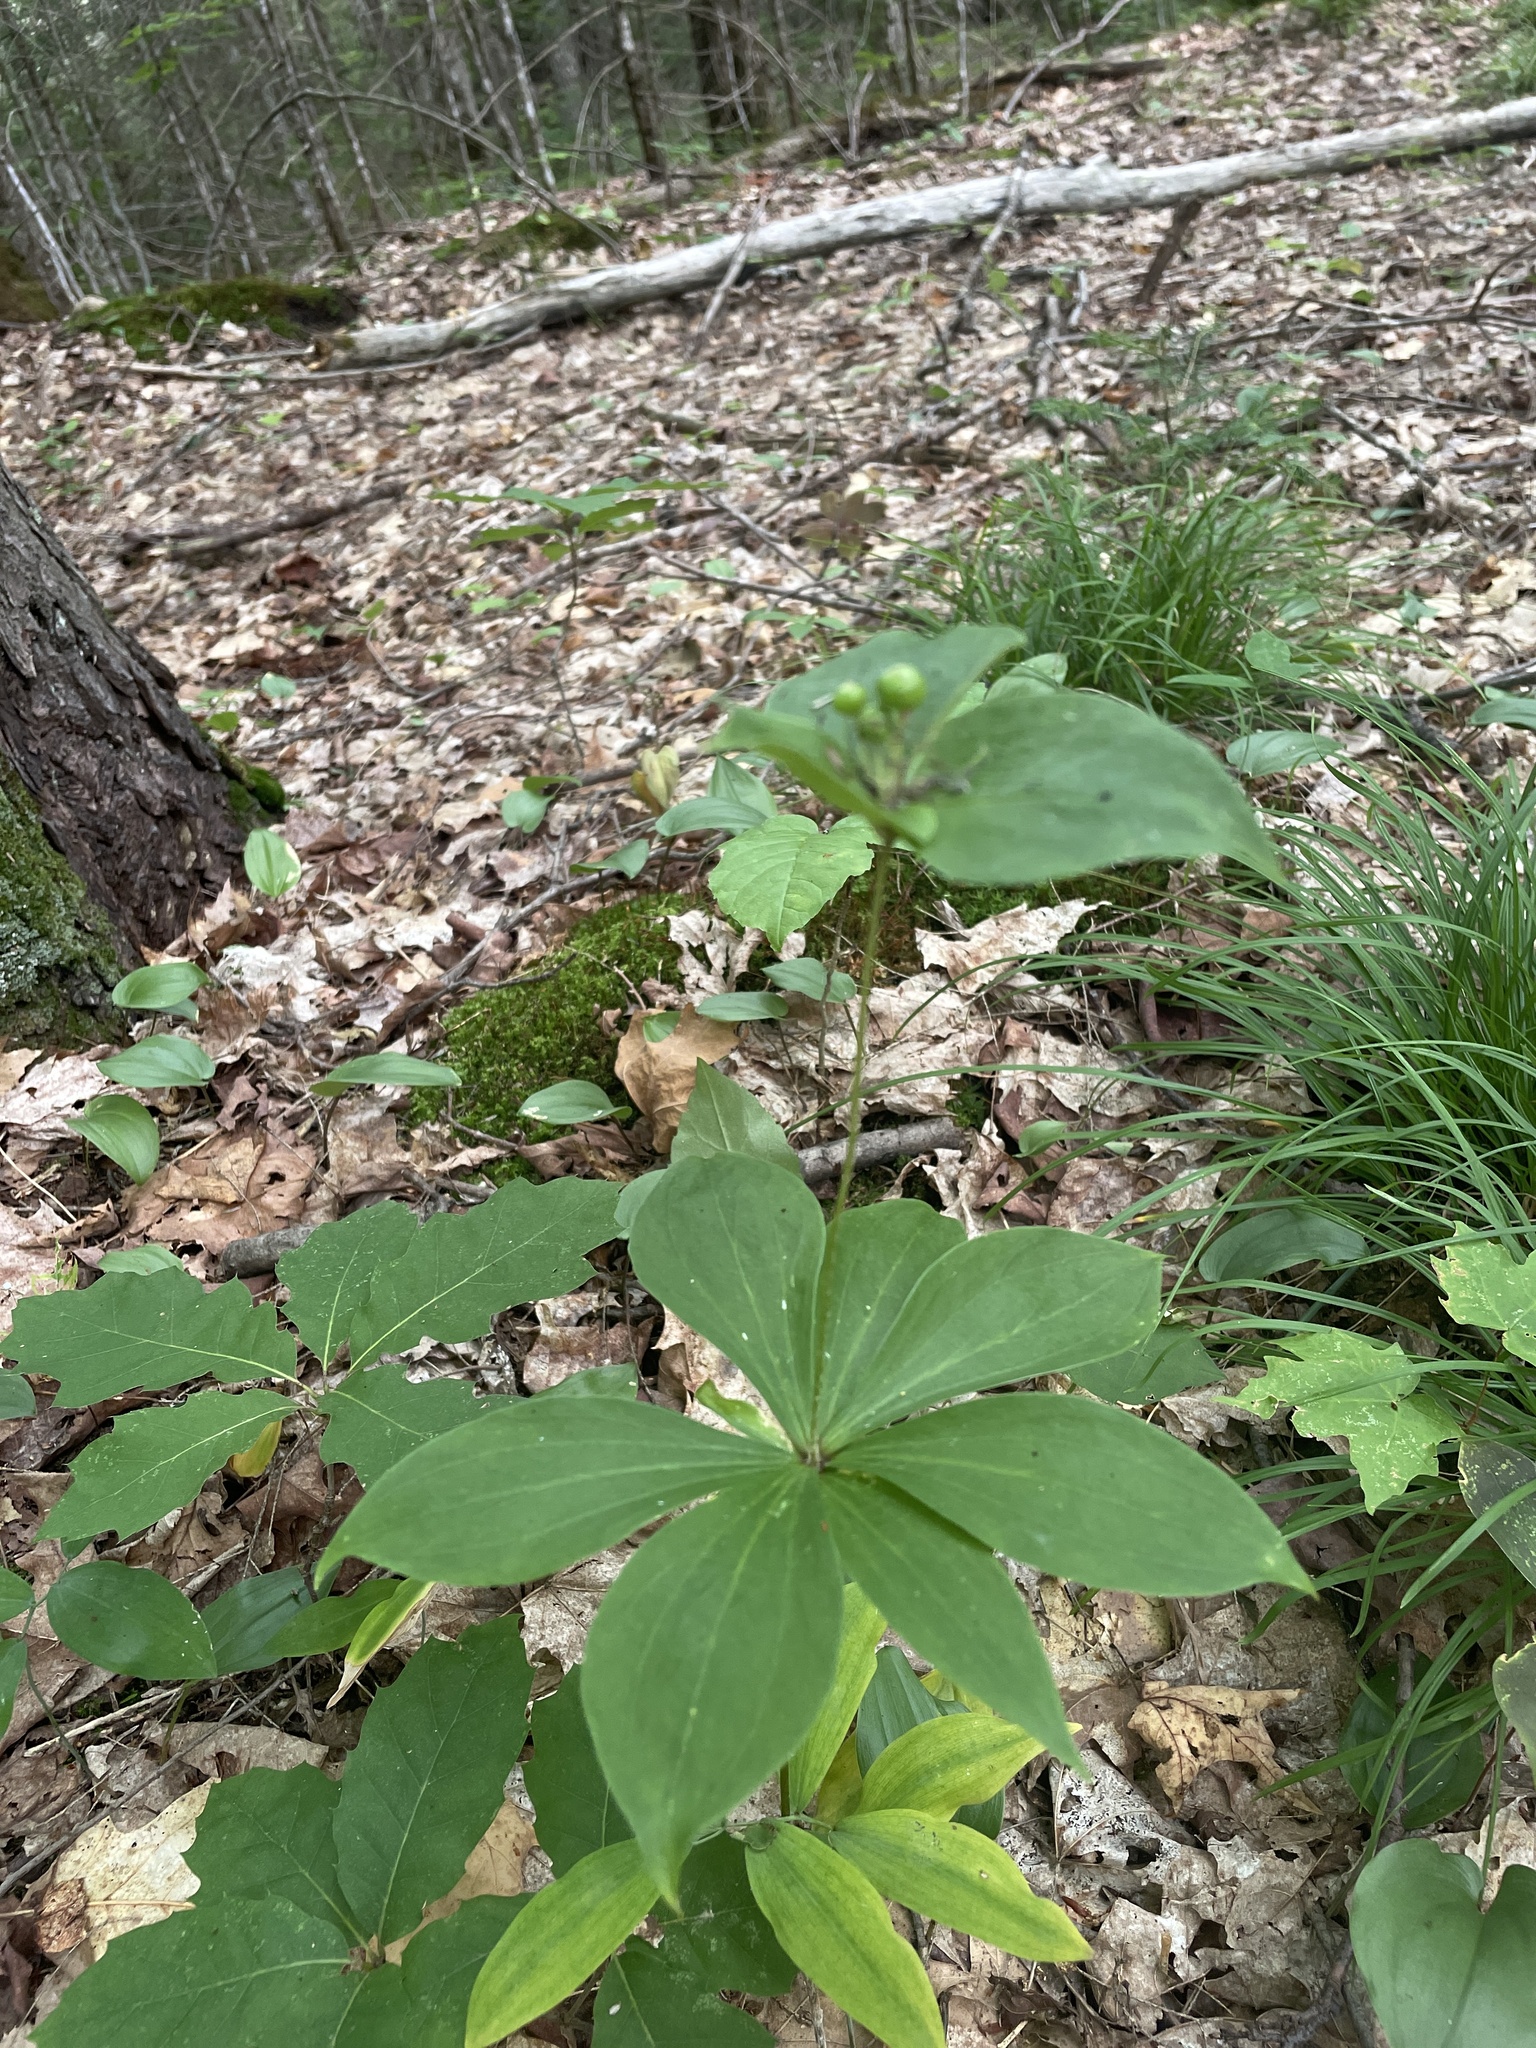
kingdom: Plantae
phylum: Tracheophyta
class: Liliopsida
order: Liliales
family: Liliaceae
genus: Medeola
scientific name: Medeola virginiana
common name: Indian cucumber-root
